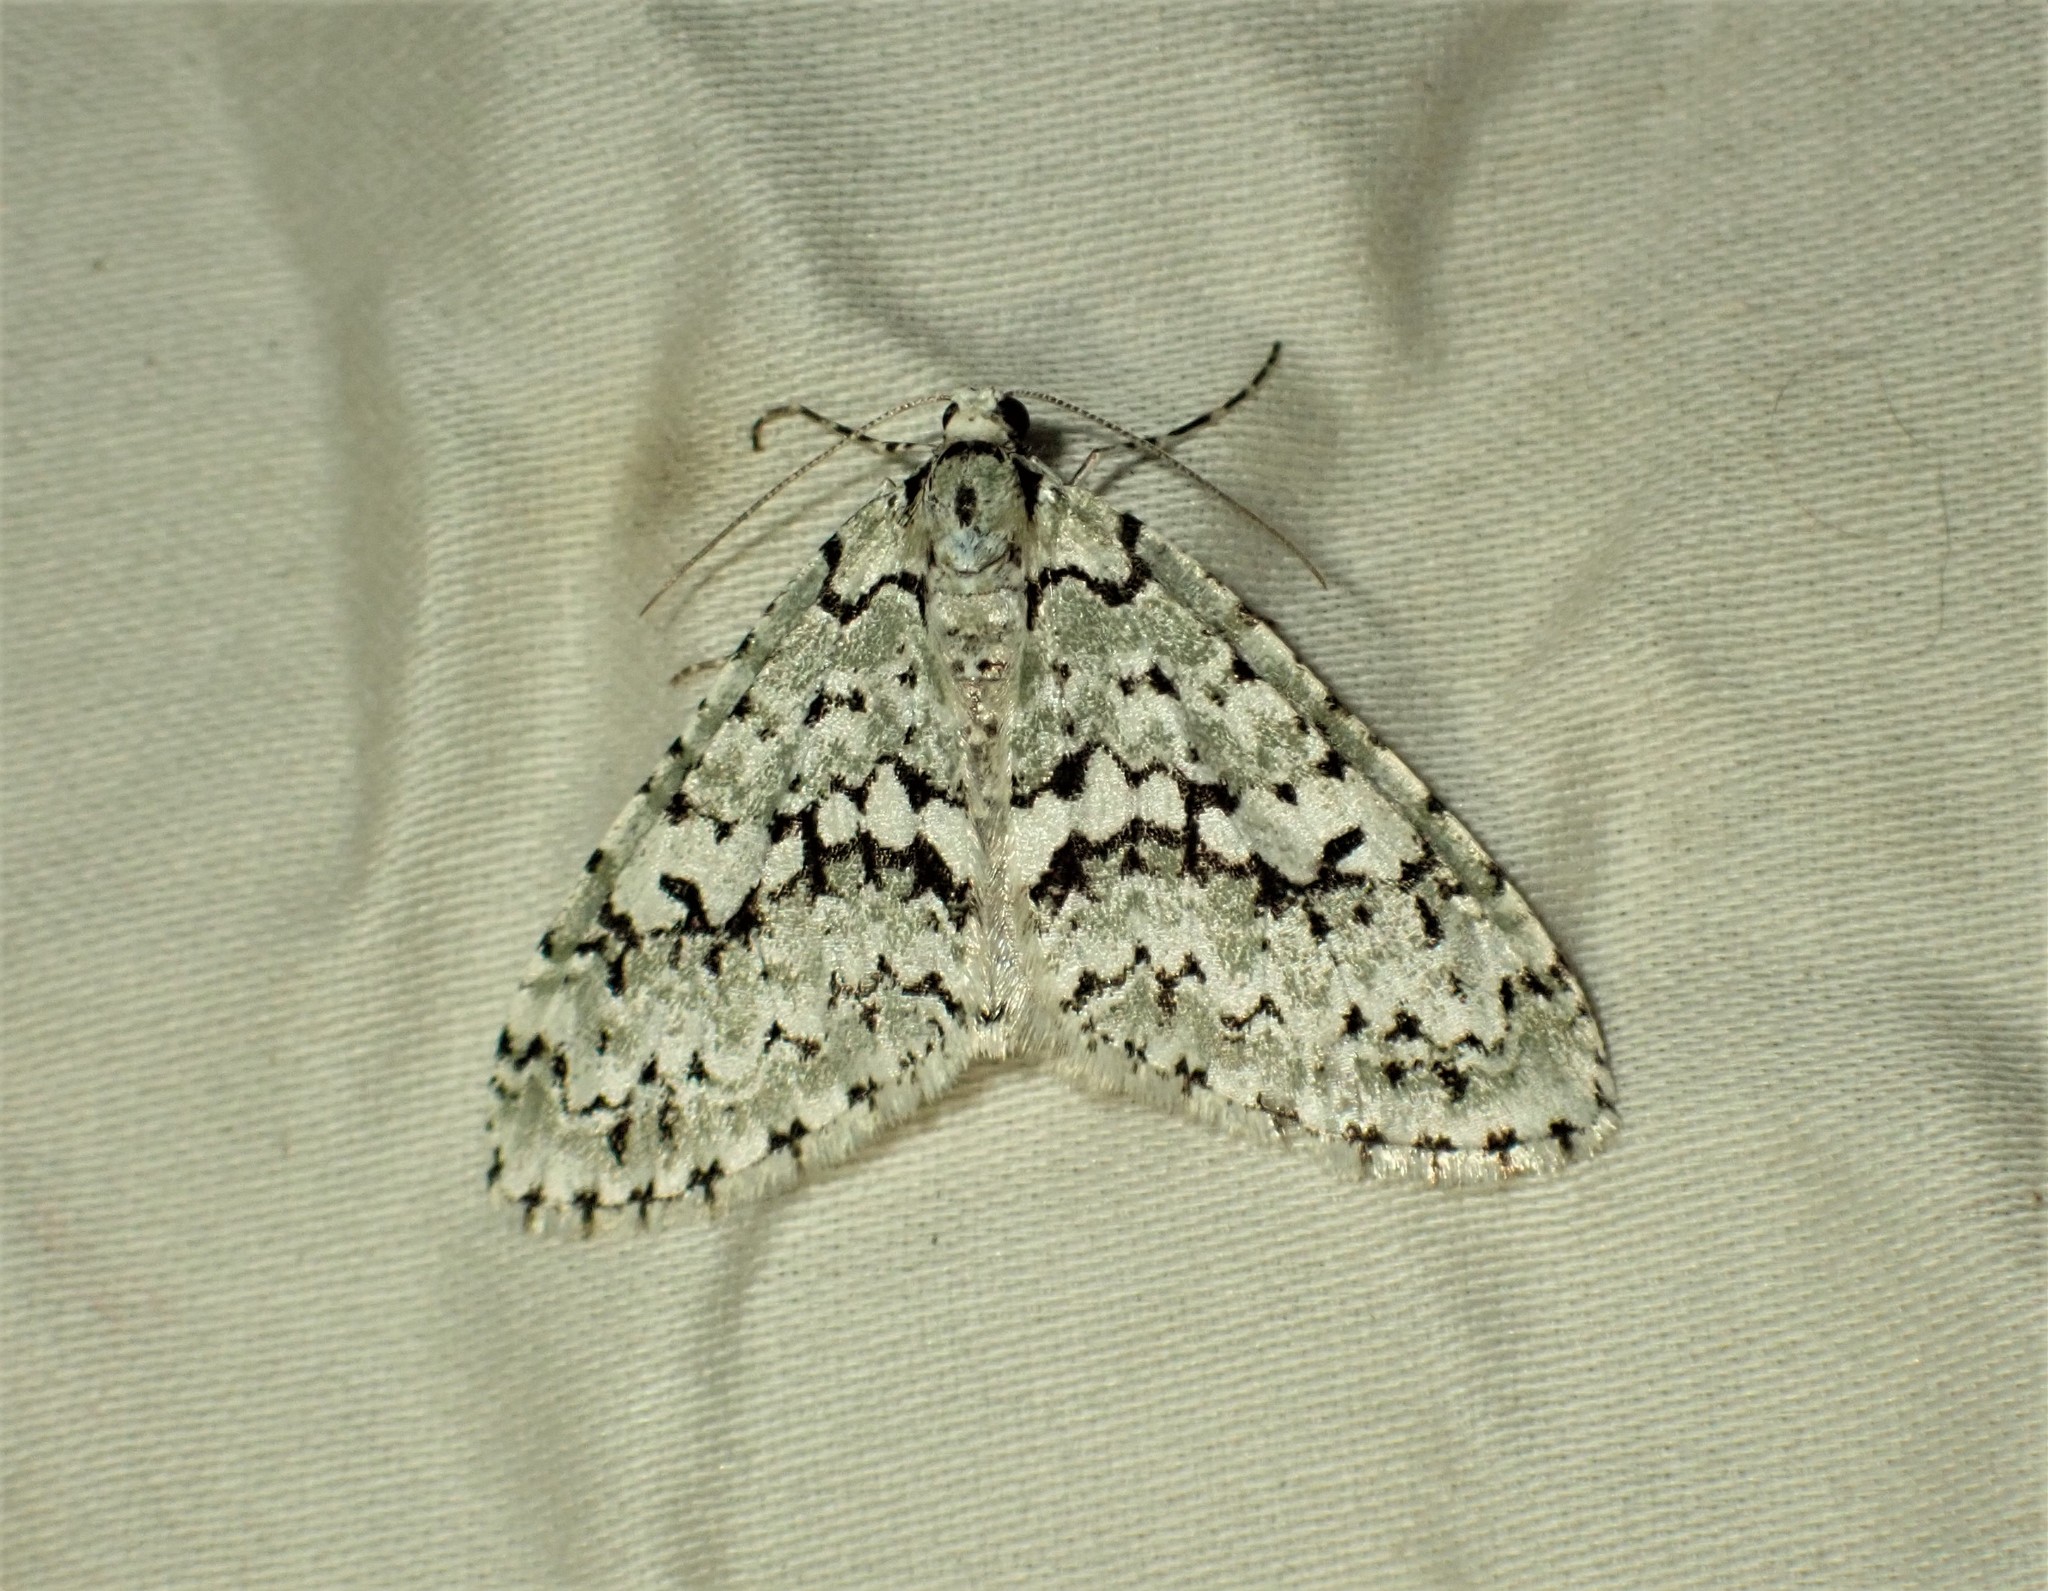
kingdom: Animalia
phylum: Arthropoda
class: Insecta
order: Lepidoptera
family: Geometridae
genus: Cladara
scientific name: Cladara atroliturata
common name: Scribbler
